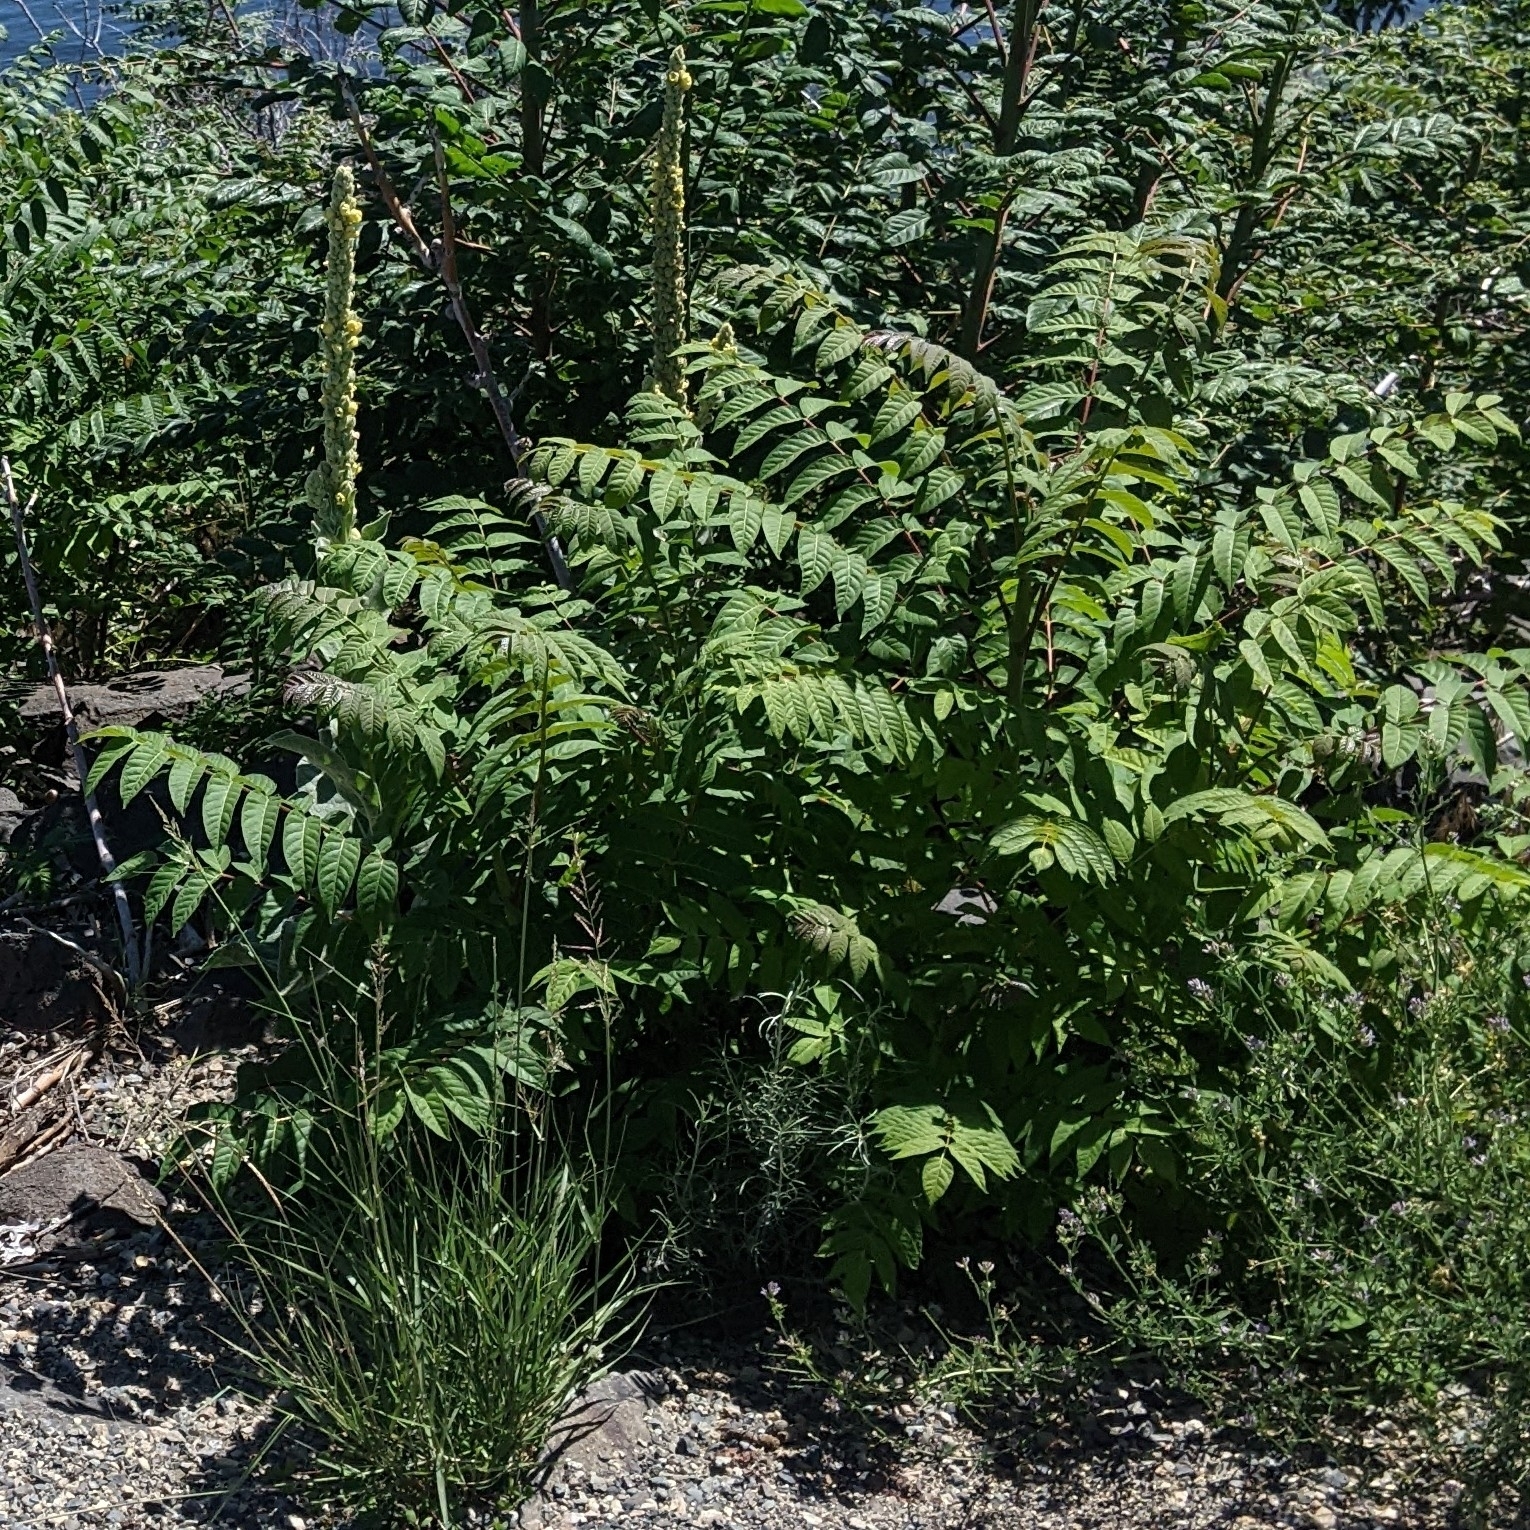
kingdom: Plantae
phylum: Tracheophyta
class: Magnoliopsida
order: Sapindales
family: Simaroubaceae
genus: Ailanthus
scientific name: Ailanthus altissima
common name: Tree-of-heaven
